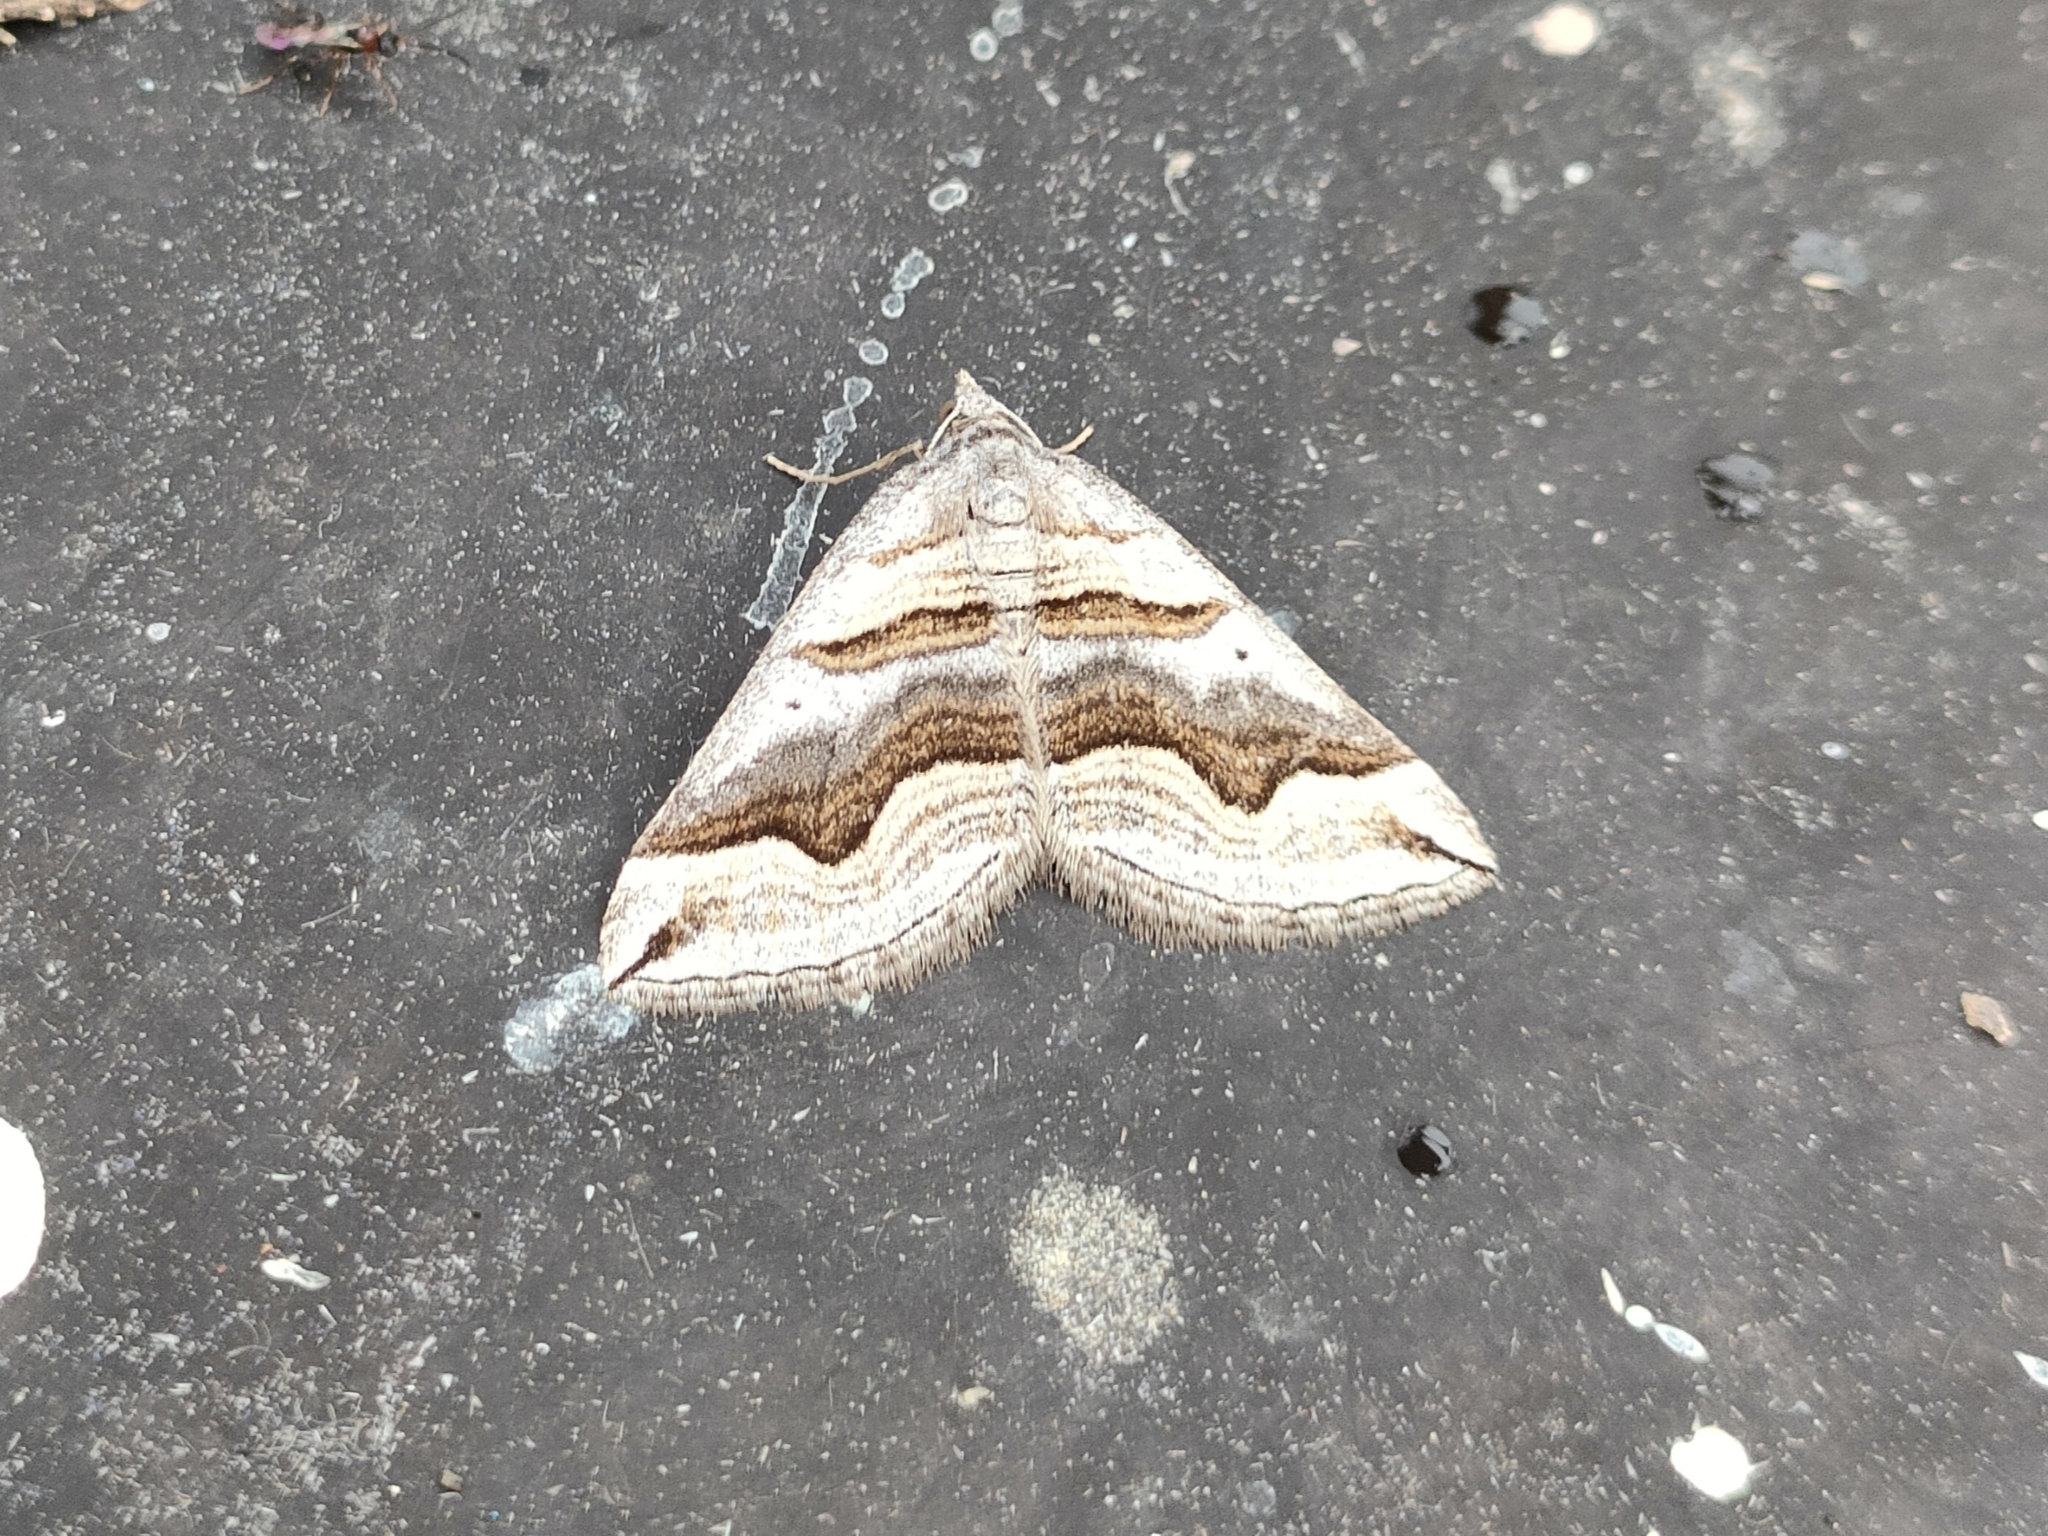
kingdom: Animalia
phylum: Arthropoda
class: Insecta
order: Lepidoptera
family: Geometridae
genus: Scotopteryx
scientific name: Scotopteryx peribolata
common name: Spanish carpet
